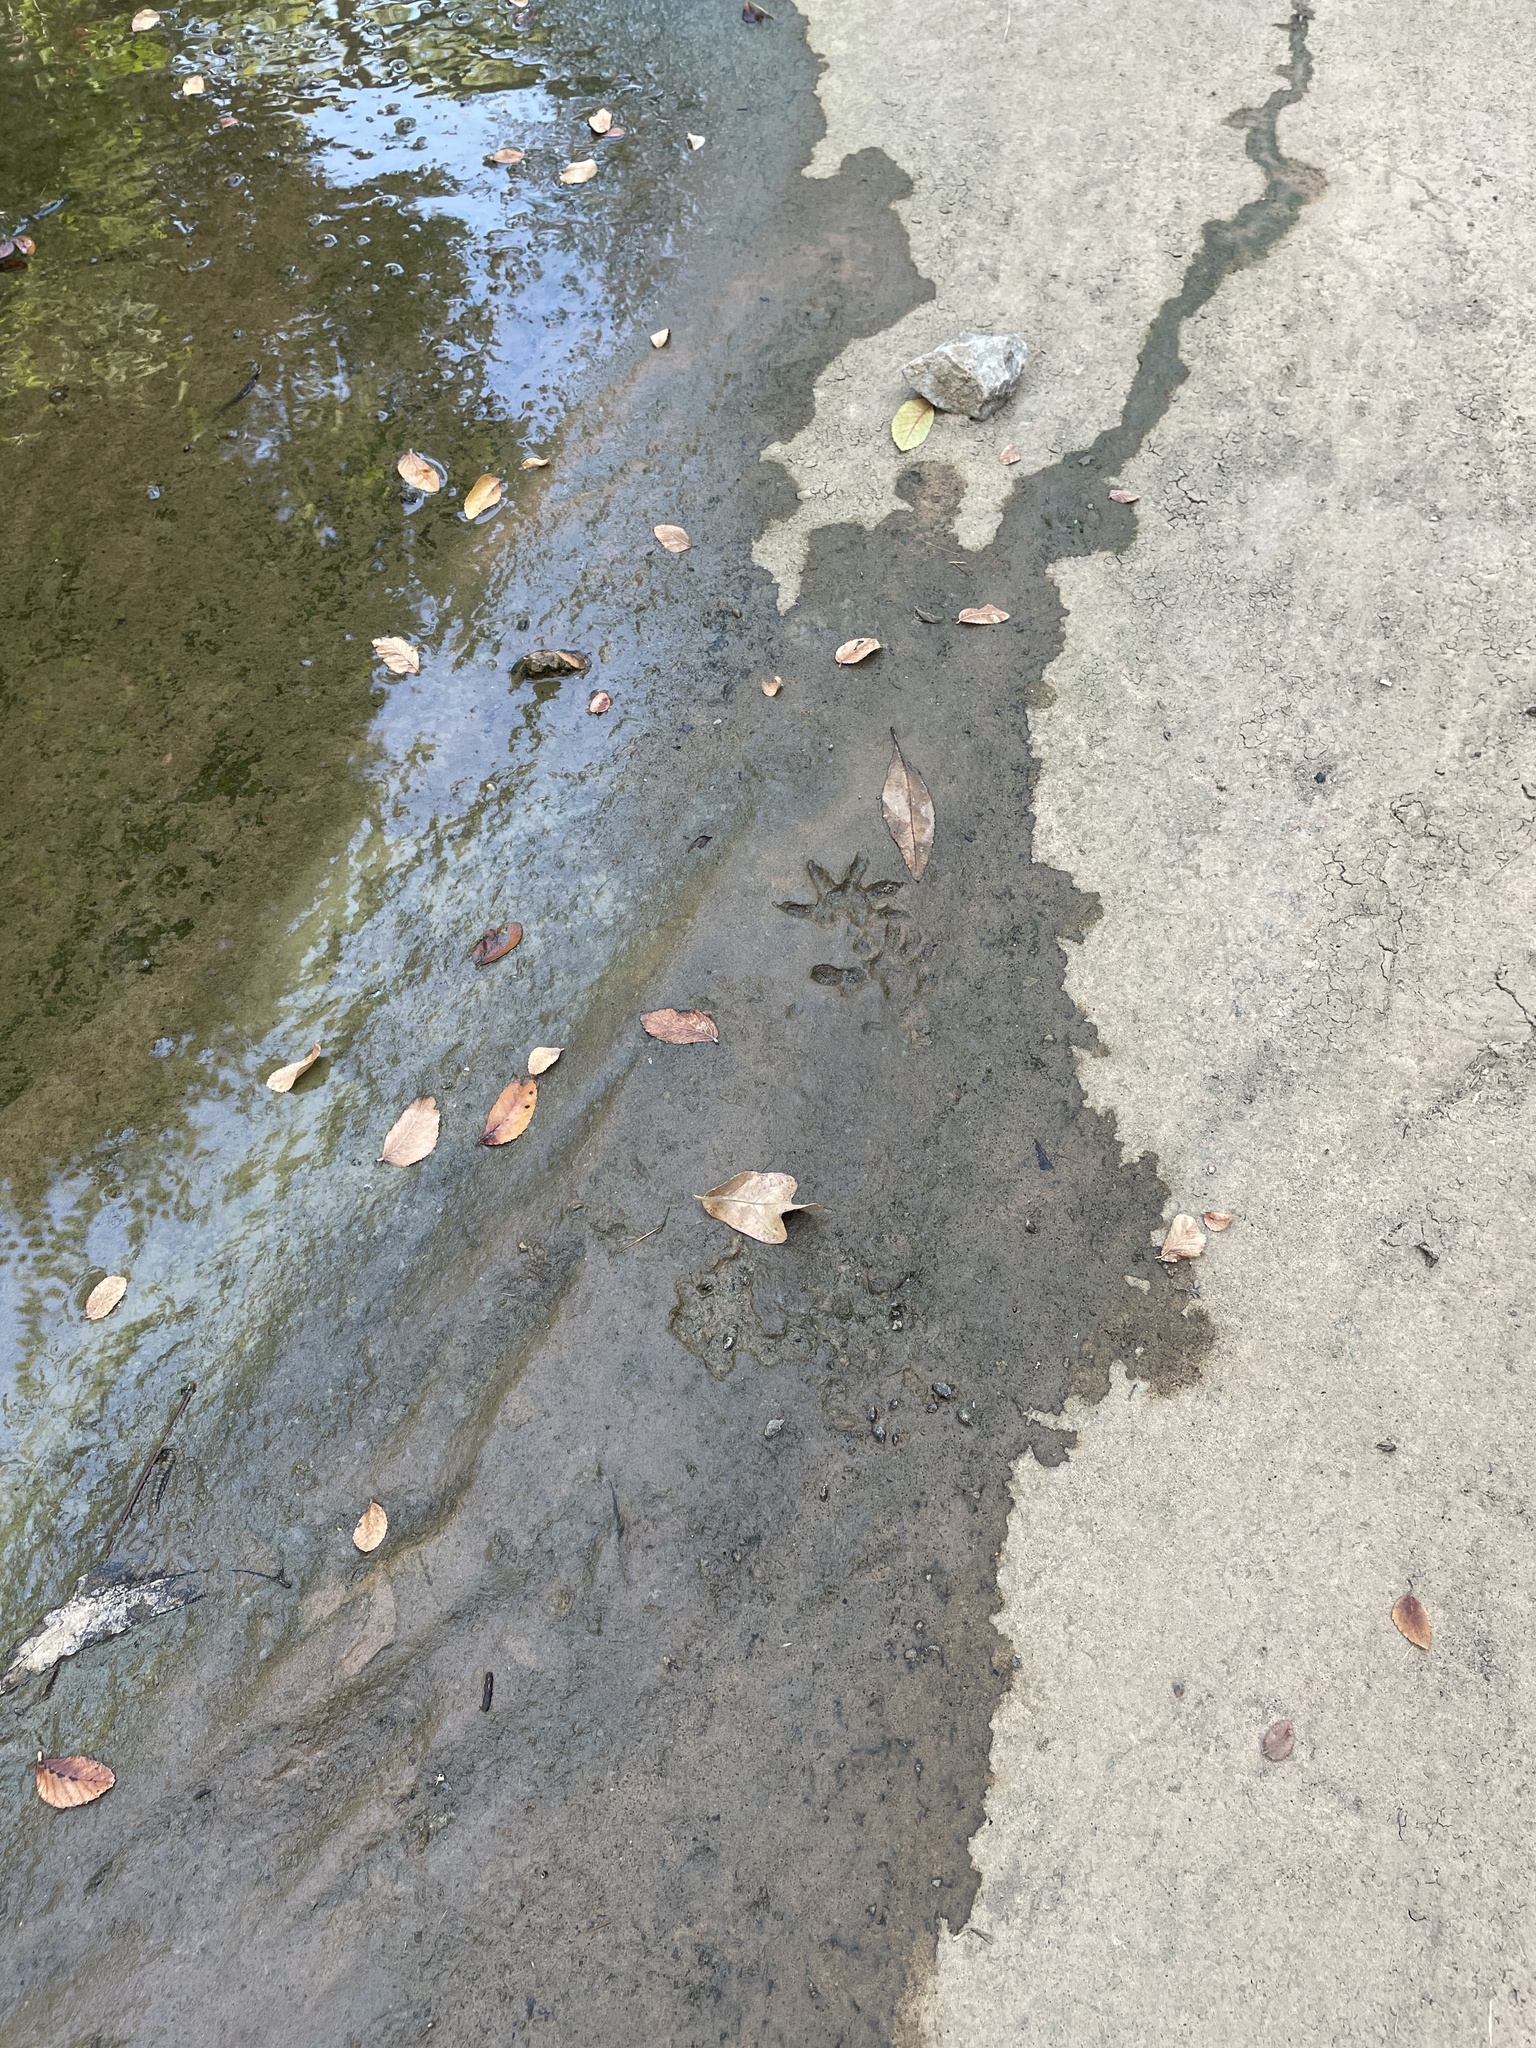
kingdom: Animalia
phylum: Chordata
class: Mammalia
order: Didelphimorphia
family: Didelphidae
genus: Didelphis
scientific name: Didelphis virginiana
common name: Virginia opossum
